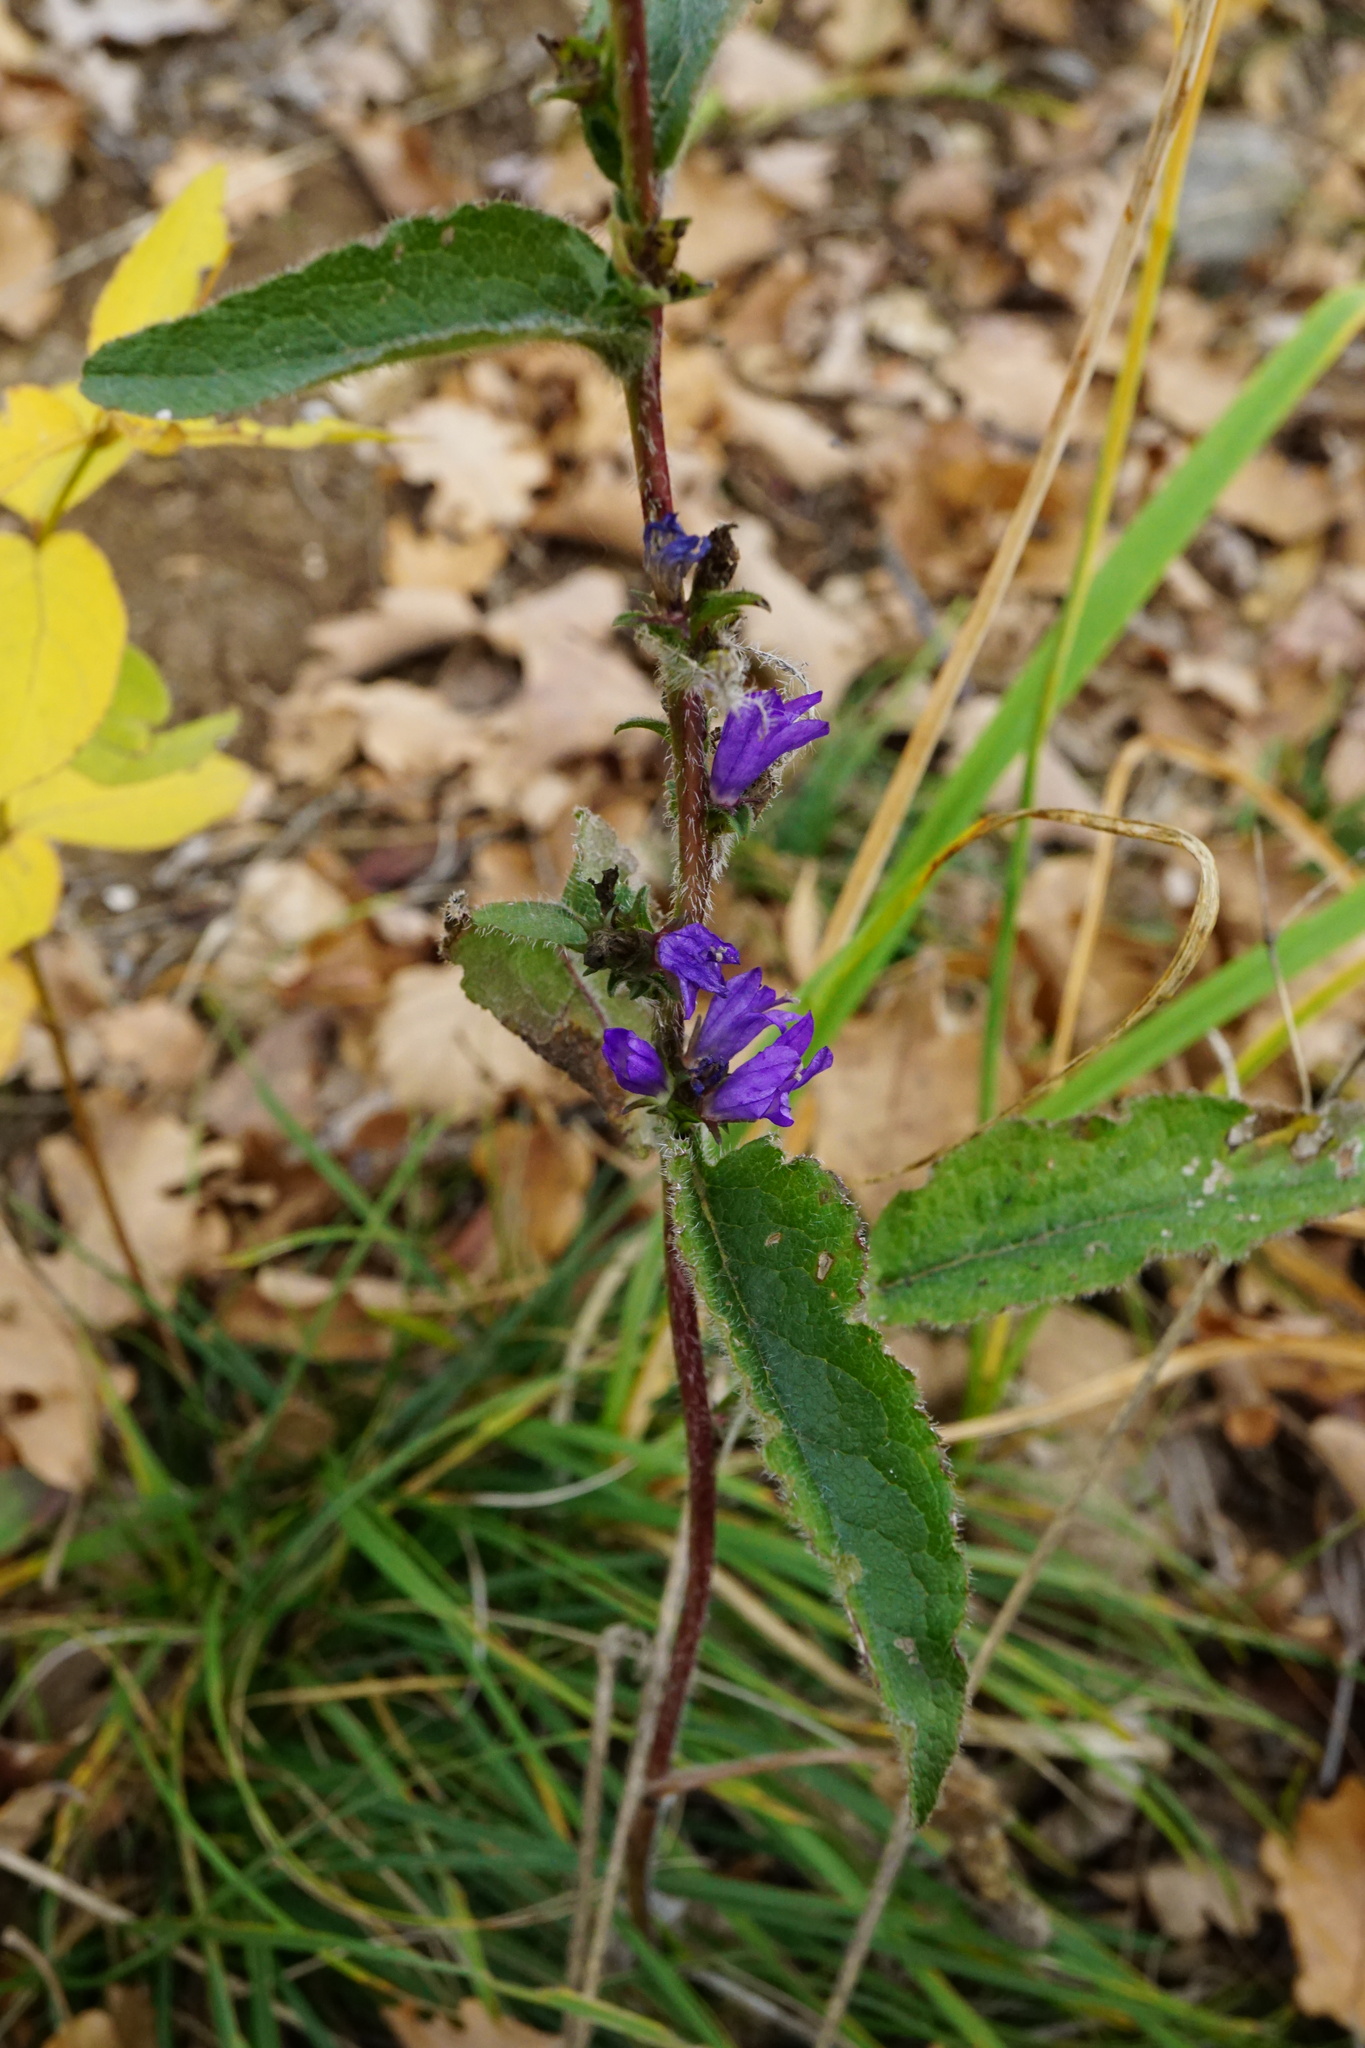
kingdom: Plantae
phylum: Tracheophyta
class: Magnoliopsida
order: Asterales
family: Campanulaceae
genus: Campanula
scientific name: Campanula glomerata
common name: Clustered bellflower
